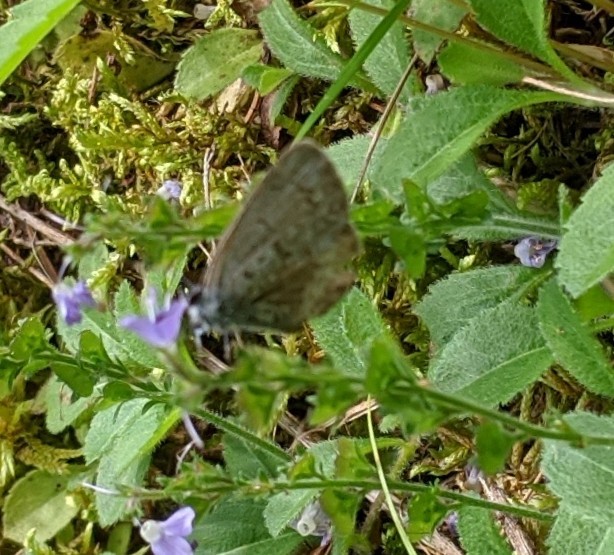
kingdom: Animalia
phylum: Arthropoda
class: Insecta
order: Lepidoptera
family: Lycaenidae
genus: Celastrina
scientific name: Celastrina lucia
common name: Lucia azure
